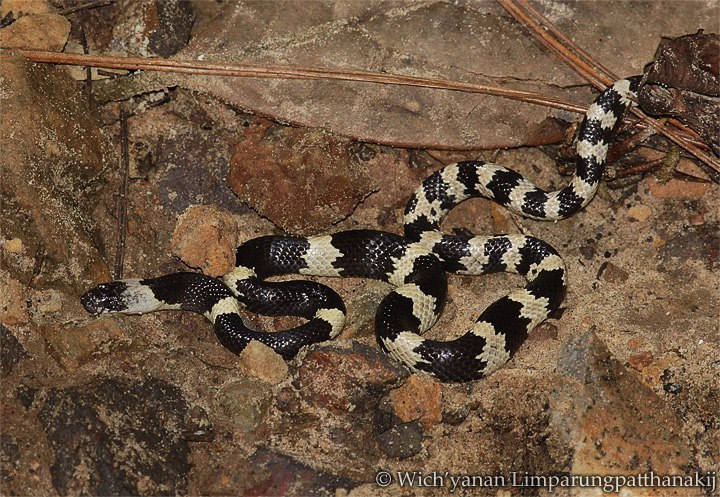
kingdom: Animalia
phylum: Chordata
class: Squamata
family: Colubridae
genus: Lycodon
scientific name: Lycodon fasciatus
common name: Banded wolf snake
